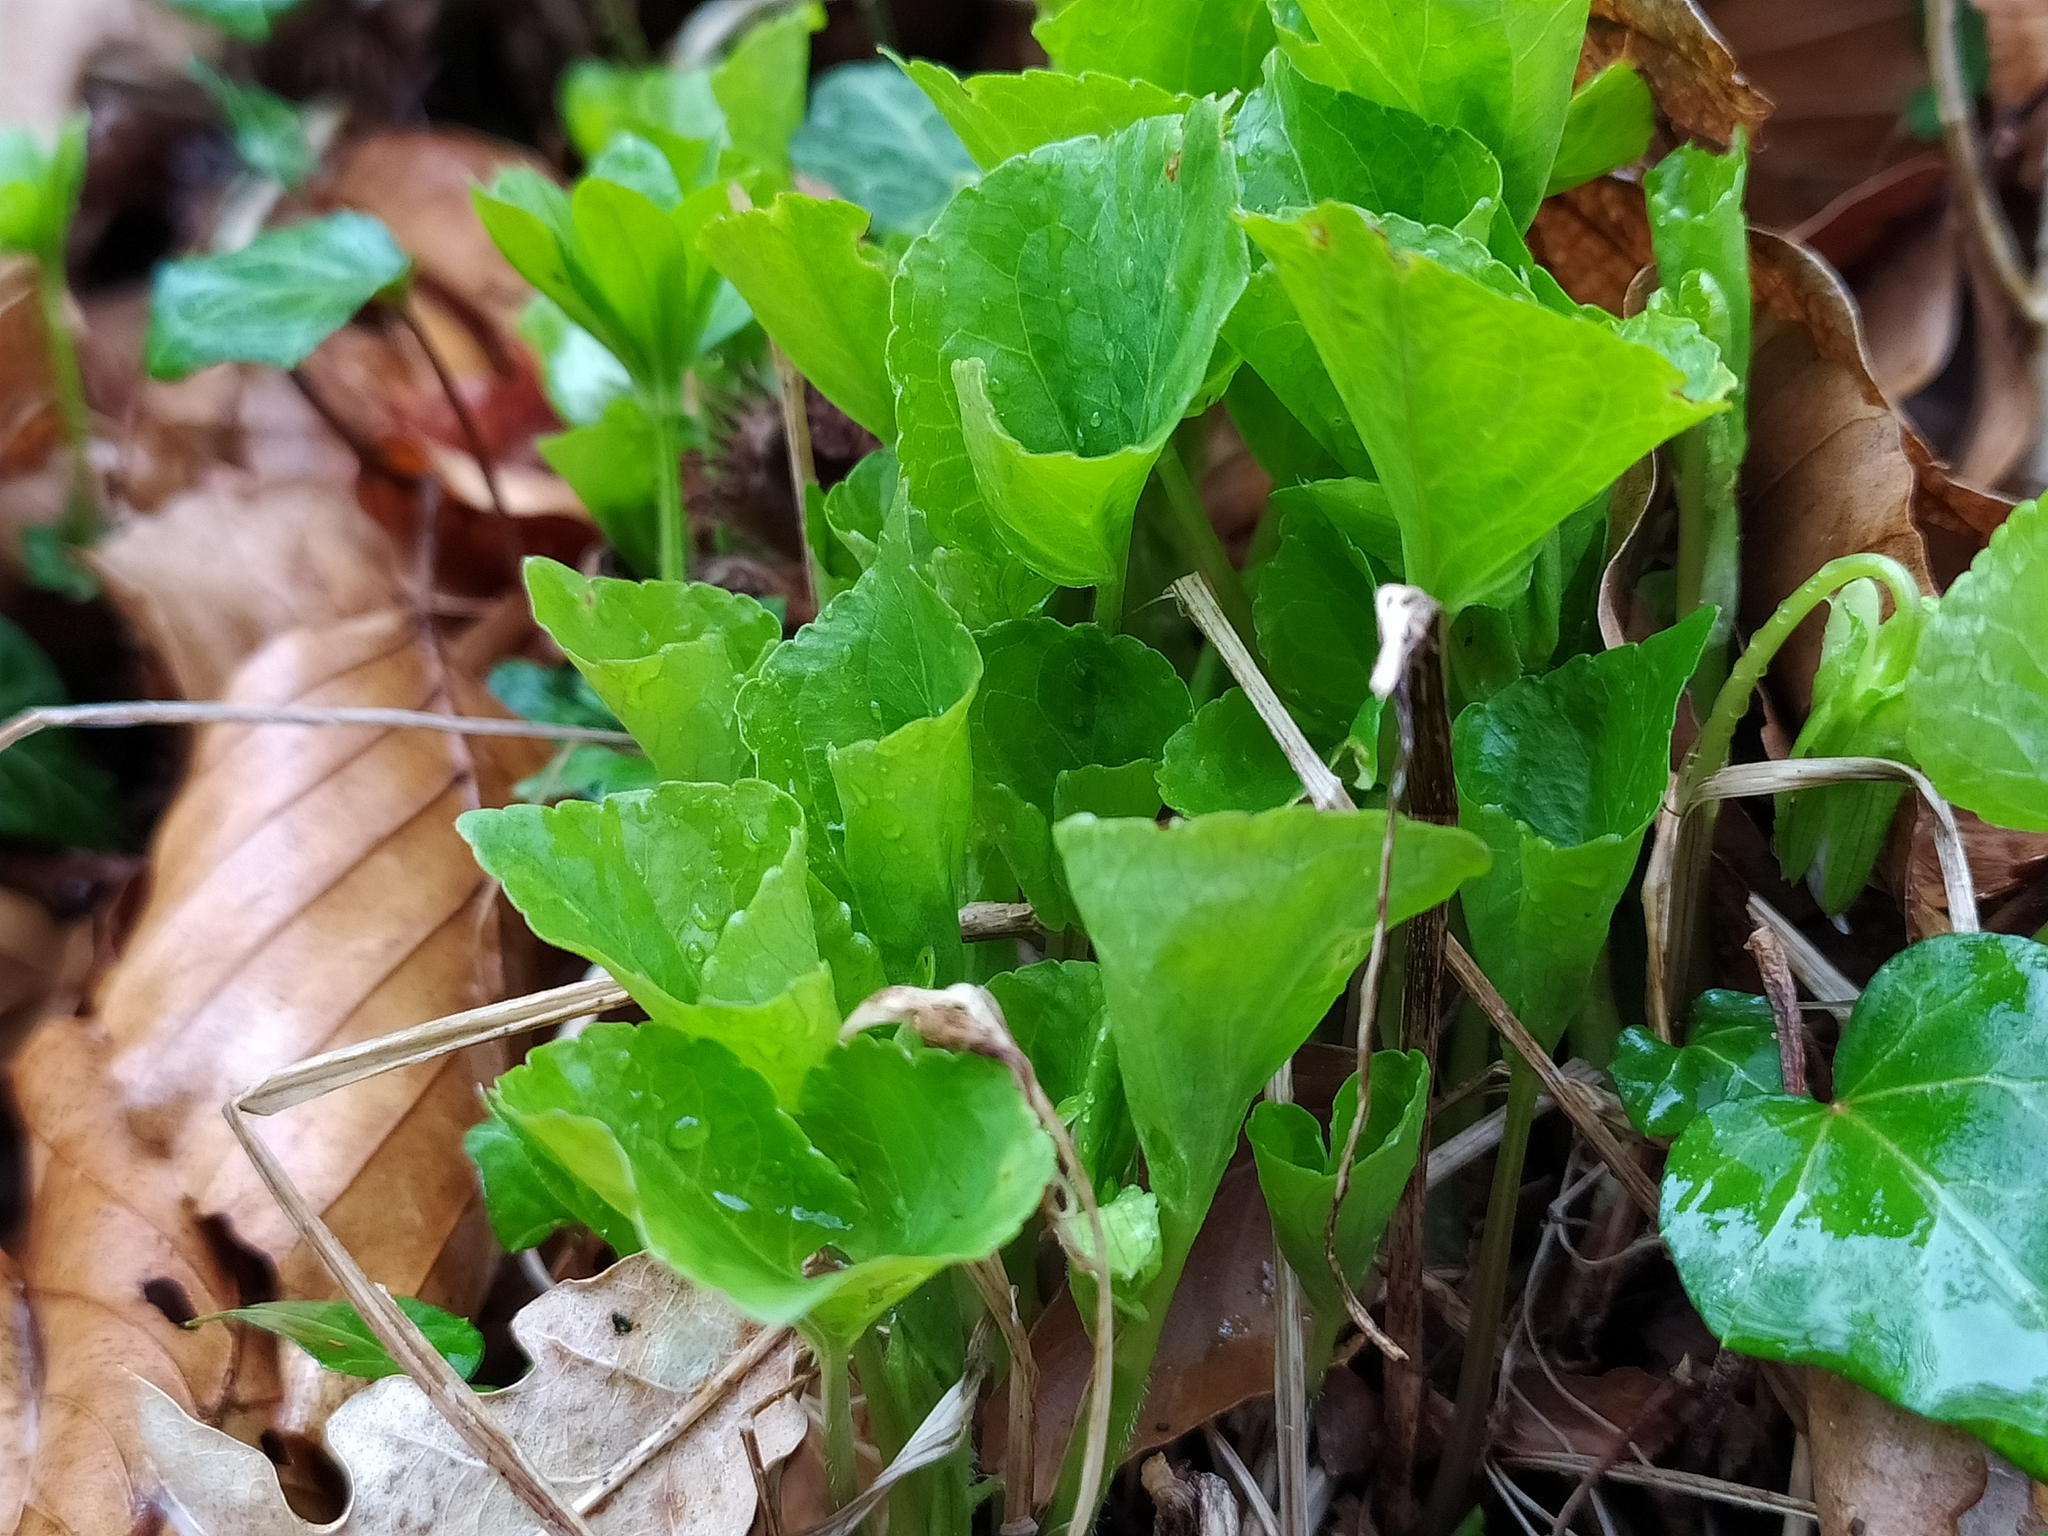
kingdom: Plantae
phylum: Tracheophyta
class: Magnoliopsida
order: Malpighiales
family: Violaceae
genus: Viola
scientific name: Viola mirabilis
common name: Wonder violet
